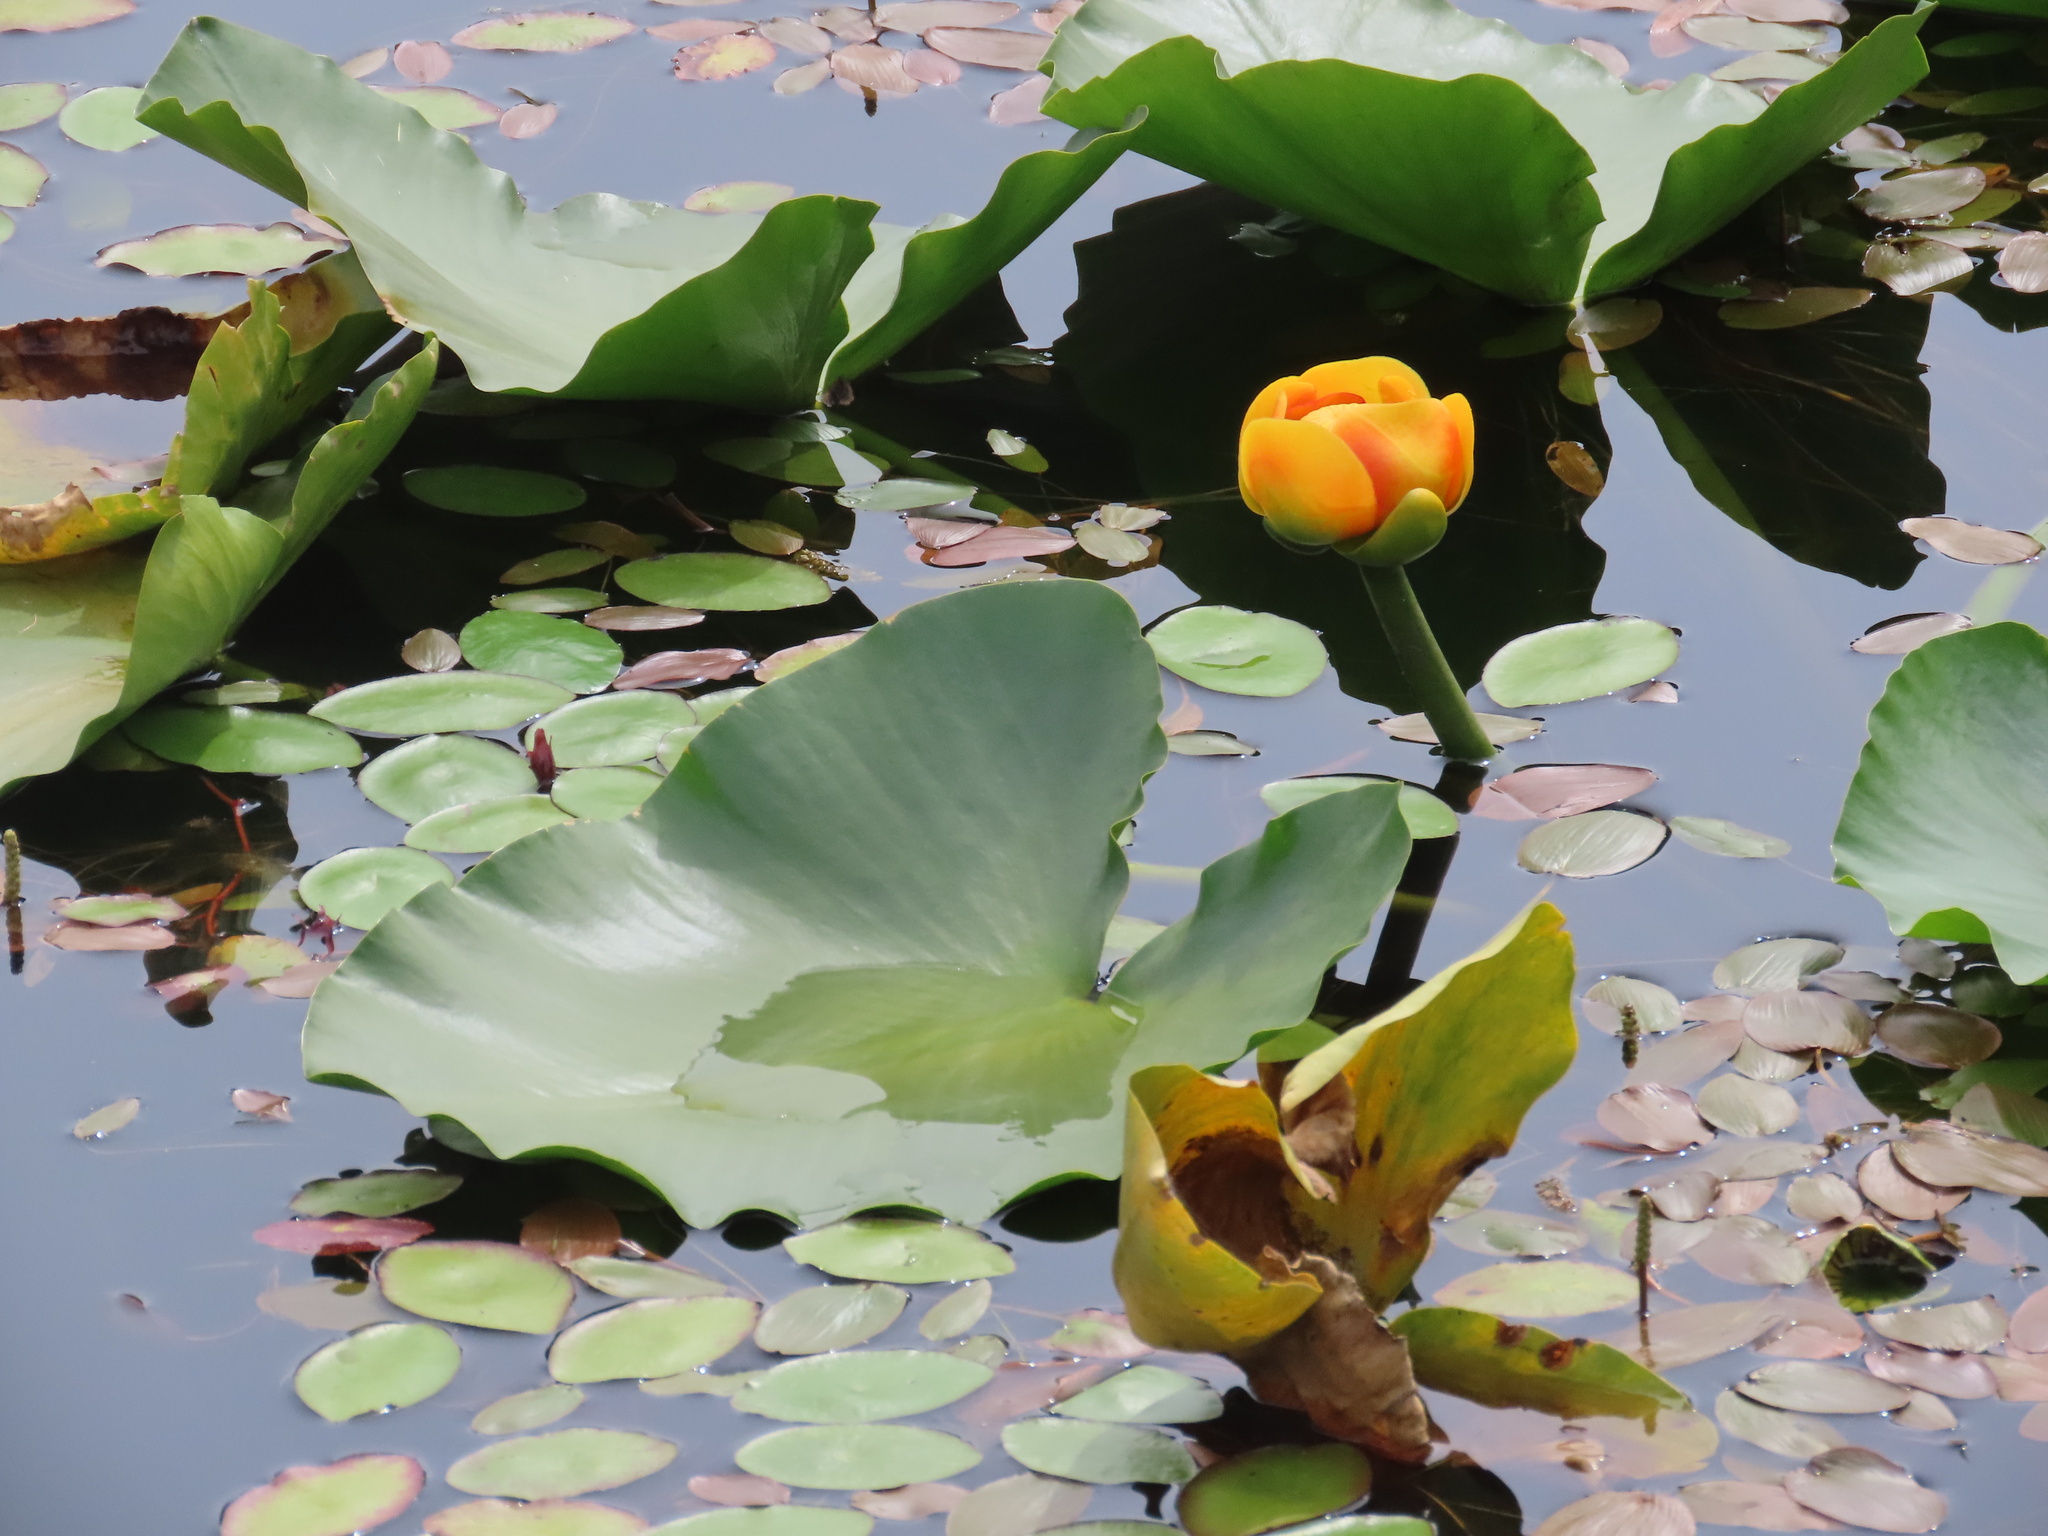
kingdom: Plantae
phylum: Tracheophyta
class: Magnoliopsida
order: Nymphaeales
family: Nymphaeaceae
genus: Nuphar
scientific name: Nuphar polysepala
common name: Rocky mountain cow-lily
